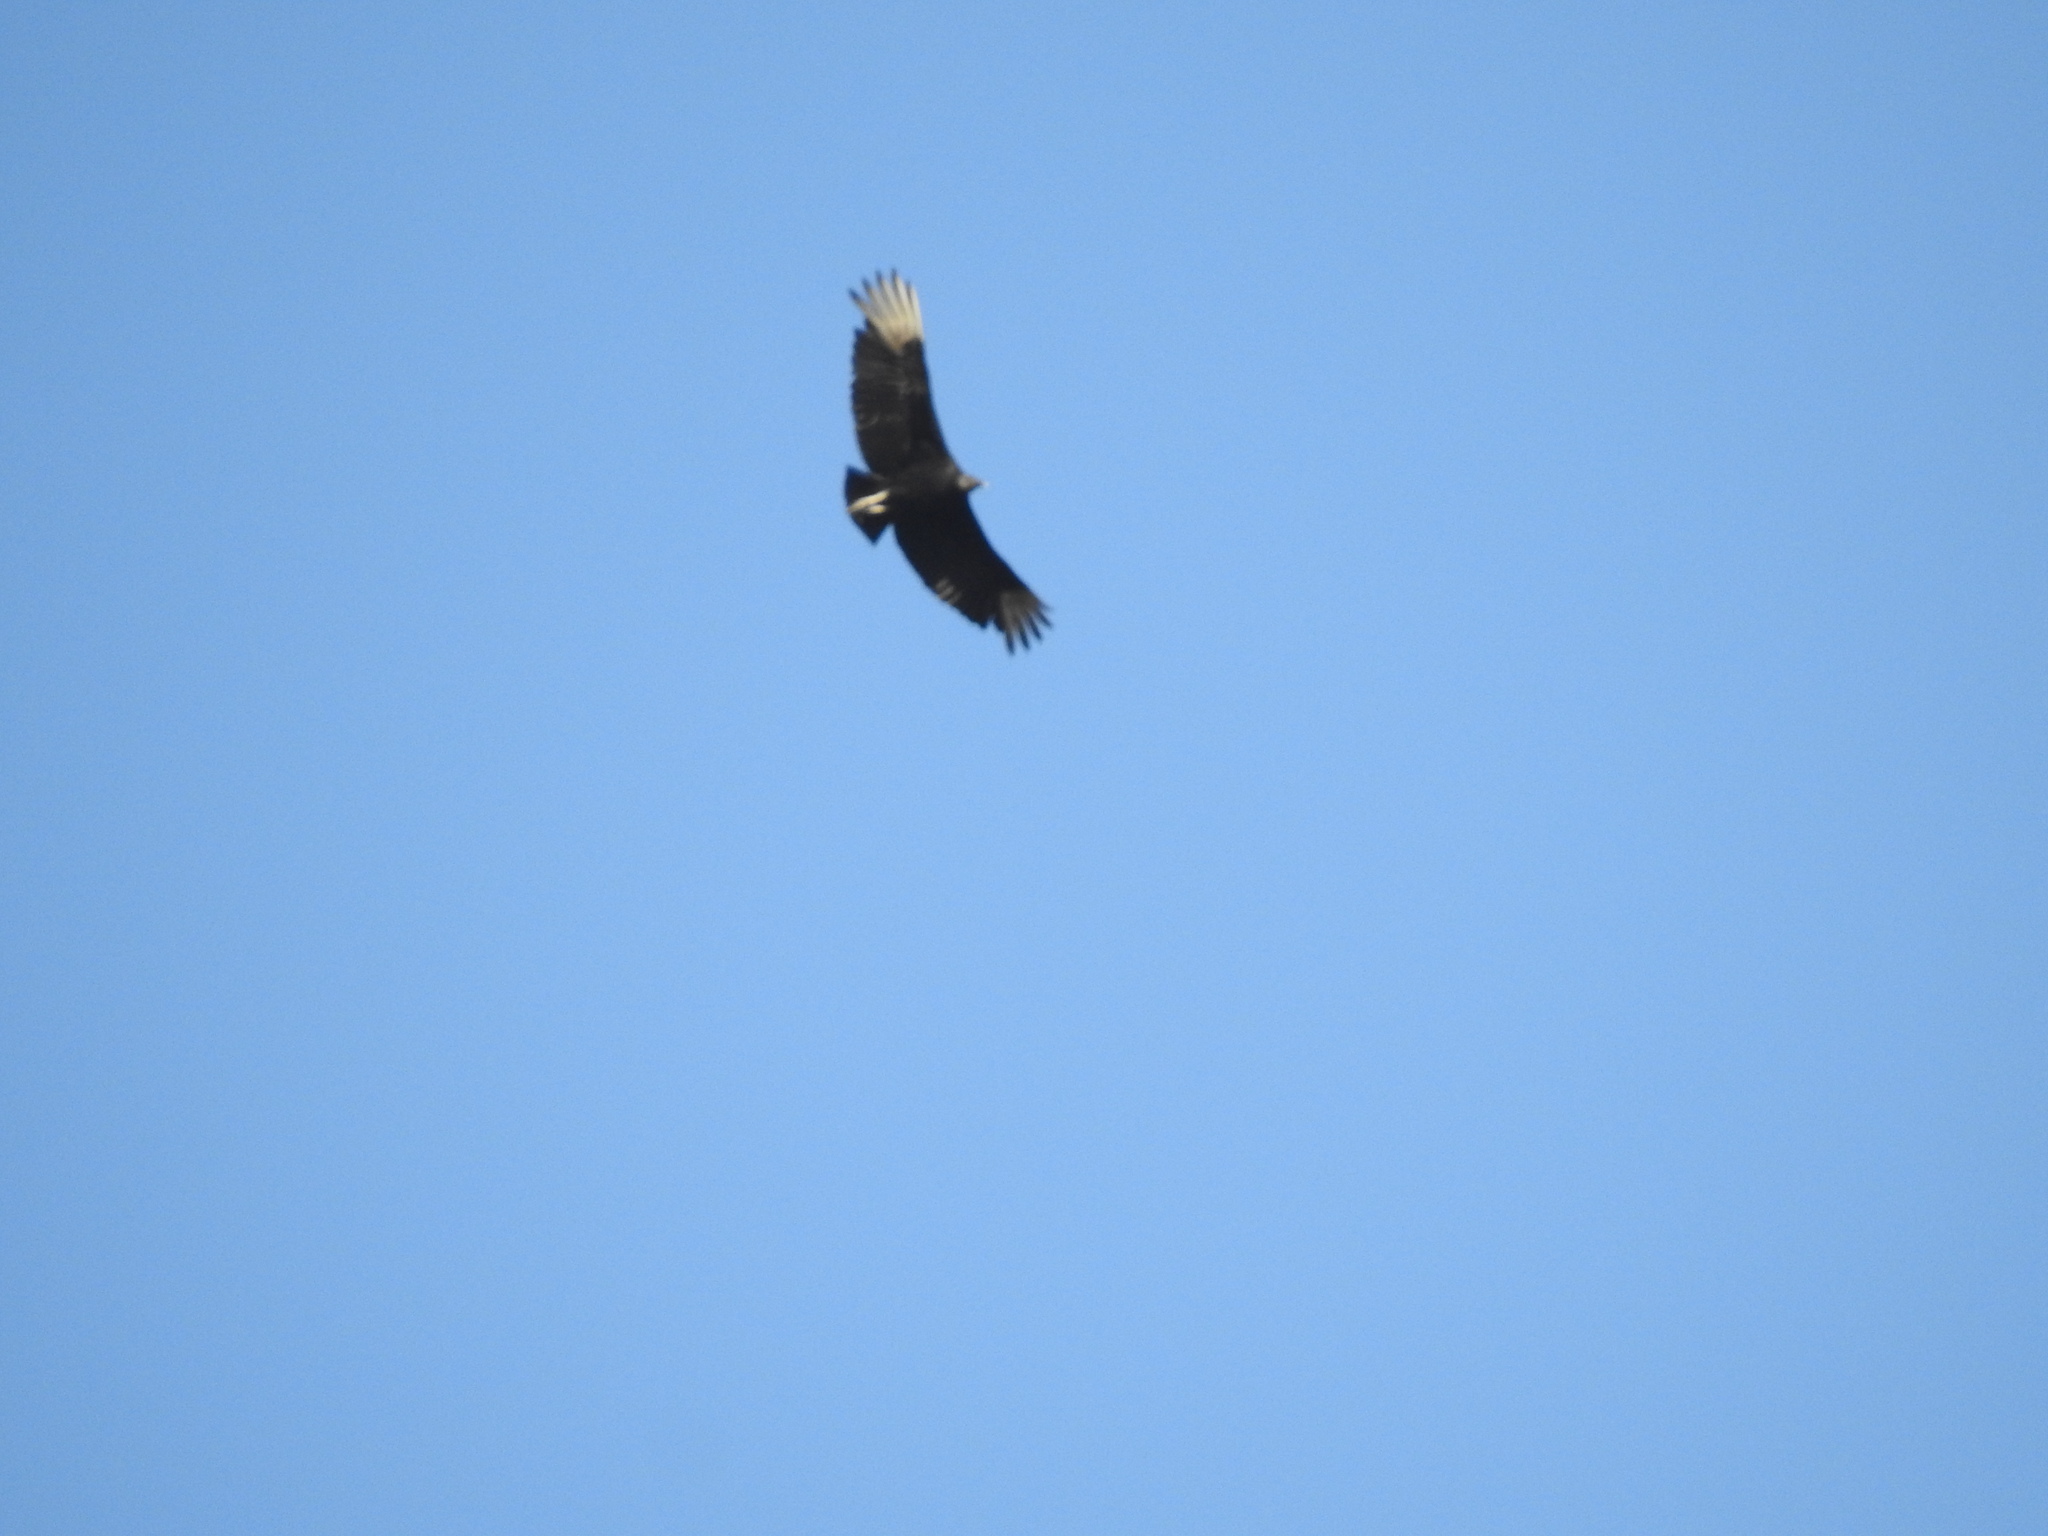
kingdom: Animalia
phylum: Chordata
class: Aves
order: Accipitriformes
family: Cathartidae
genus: Coragyps
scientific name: Coragyps atratus
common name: Black vulture
